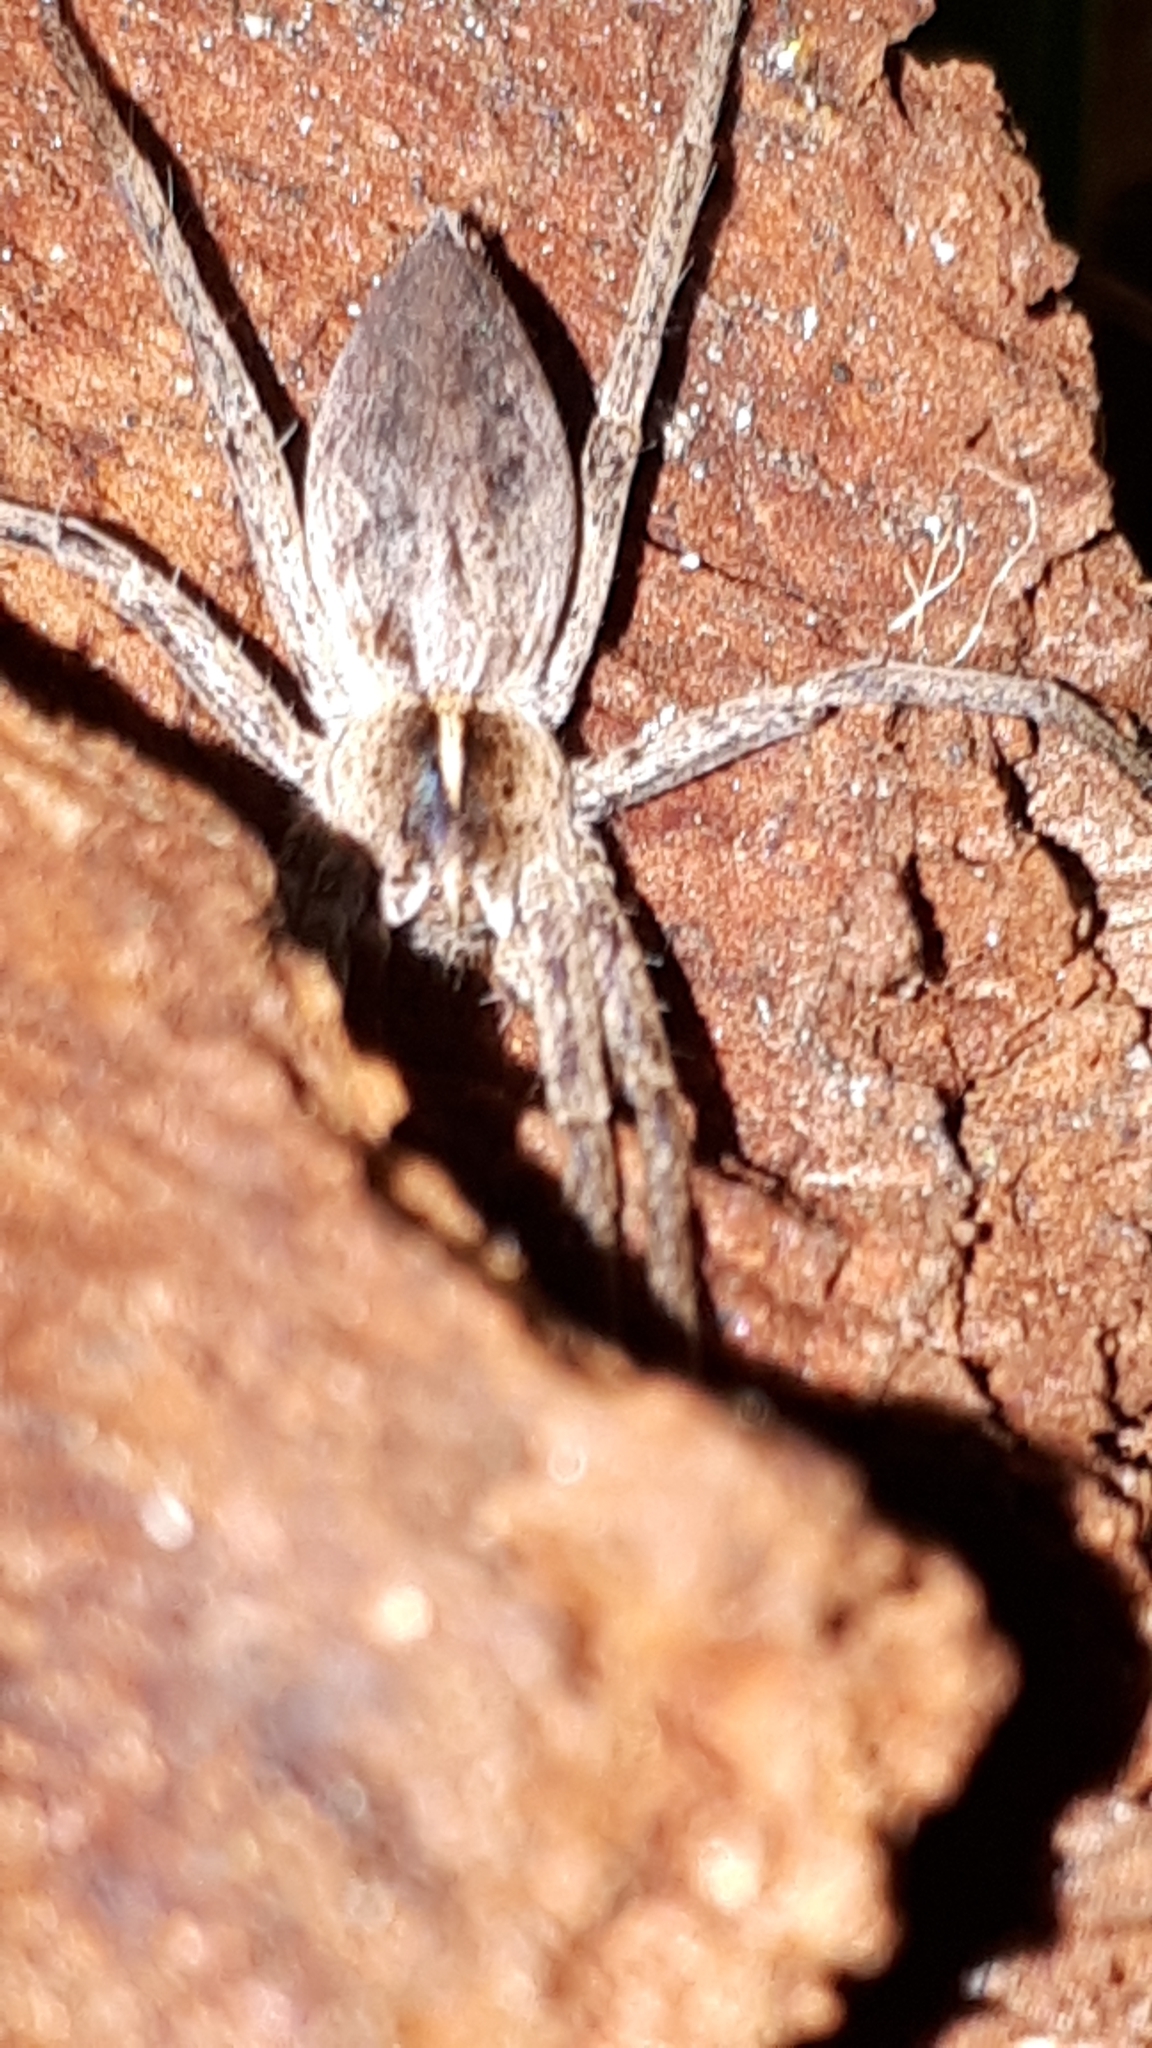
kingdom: Animalia
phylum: Arthropoda
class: Arachnida
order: Araneae
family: Pisauridae
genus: Pisaura
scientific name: Pisaura mirabilis
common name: Tent spider
